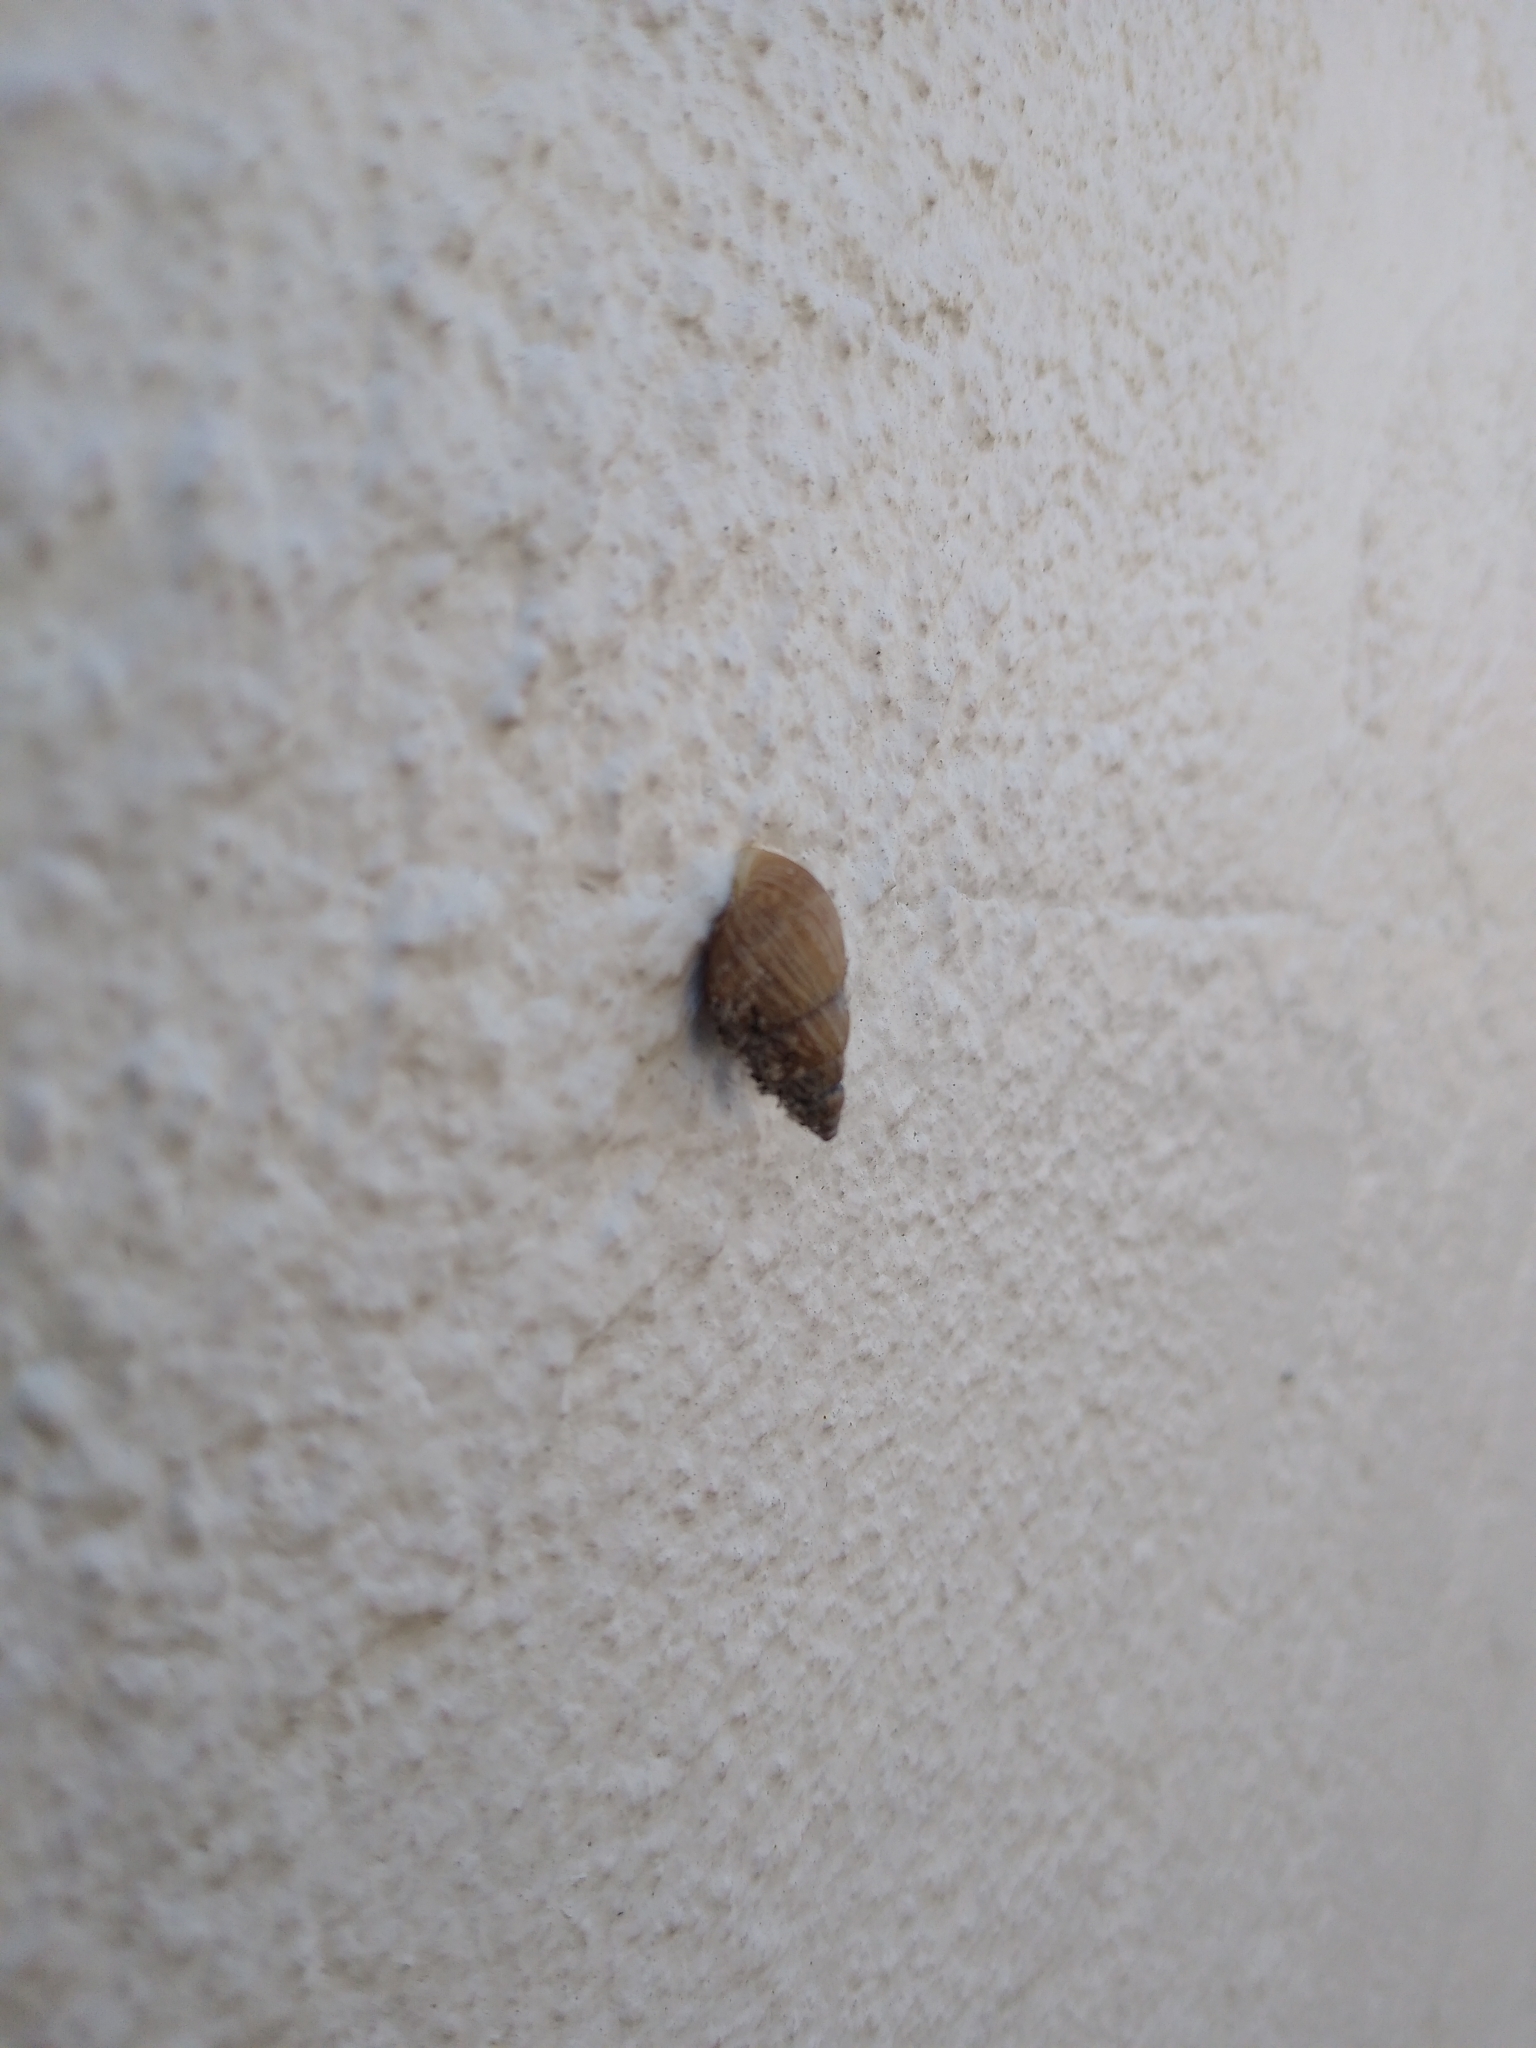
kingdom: Animalia
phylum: Mollusca
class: Gastropoda
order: Stylommatophora
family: Bulimulidae
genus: Bulimulus
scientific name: Bulimulus bonariensis
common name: Snail
